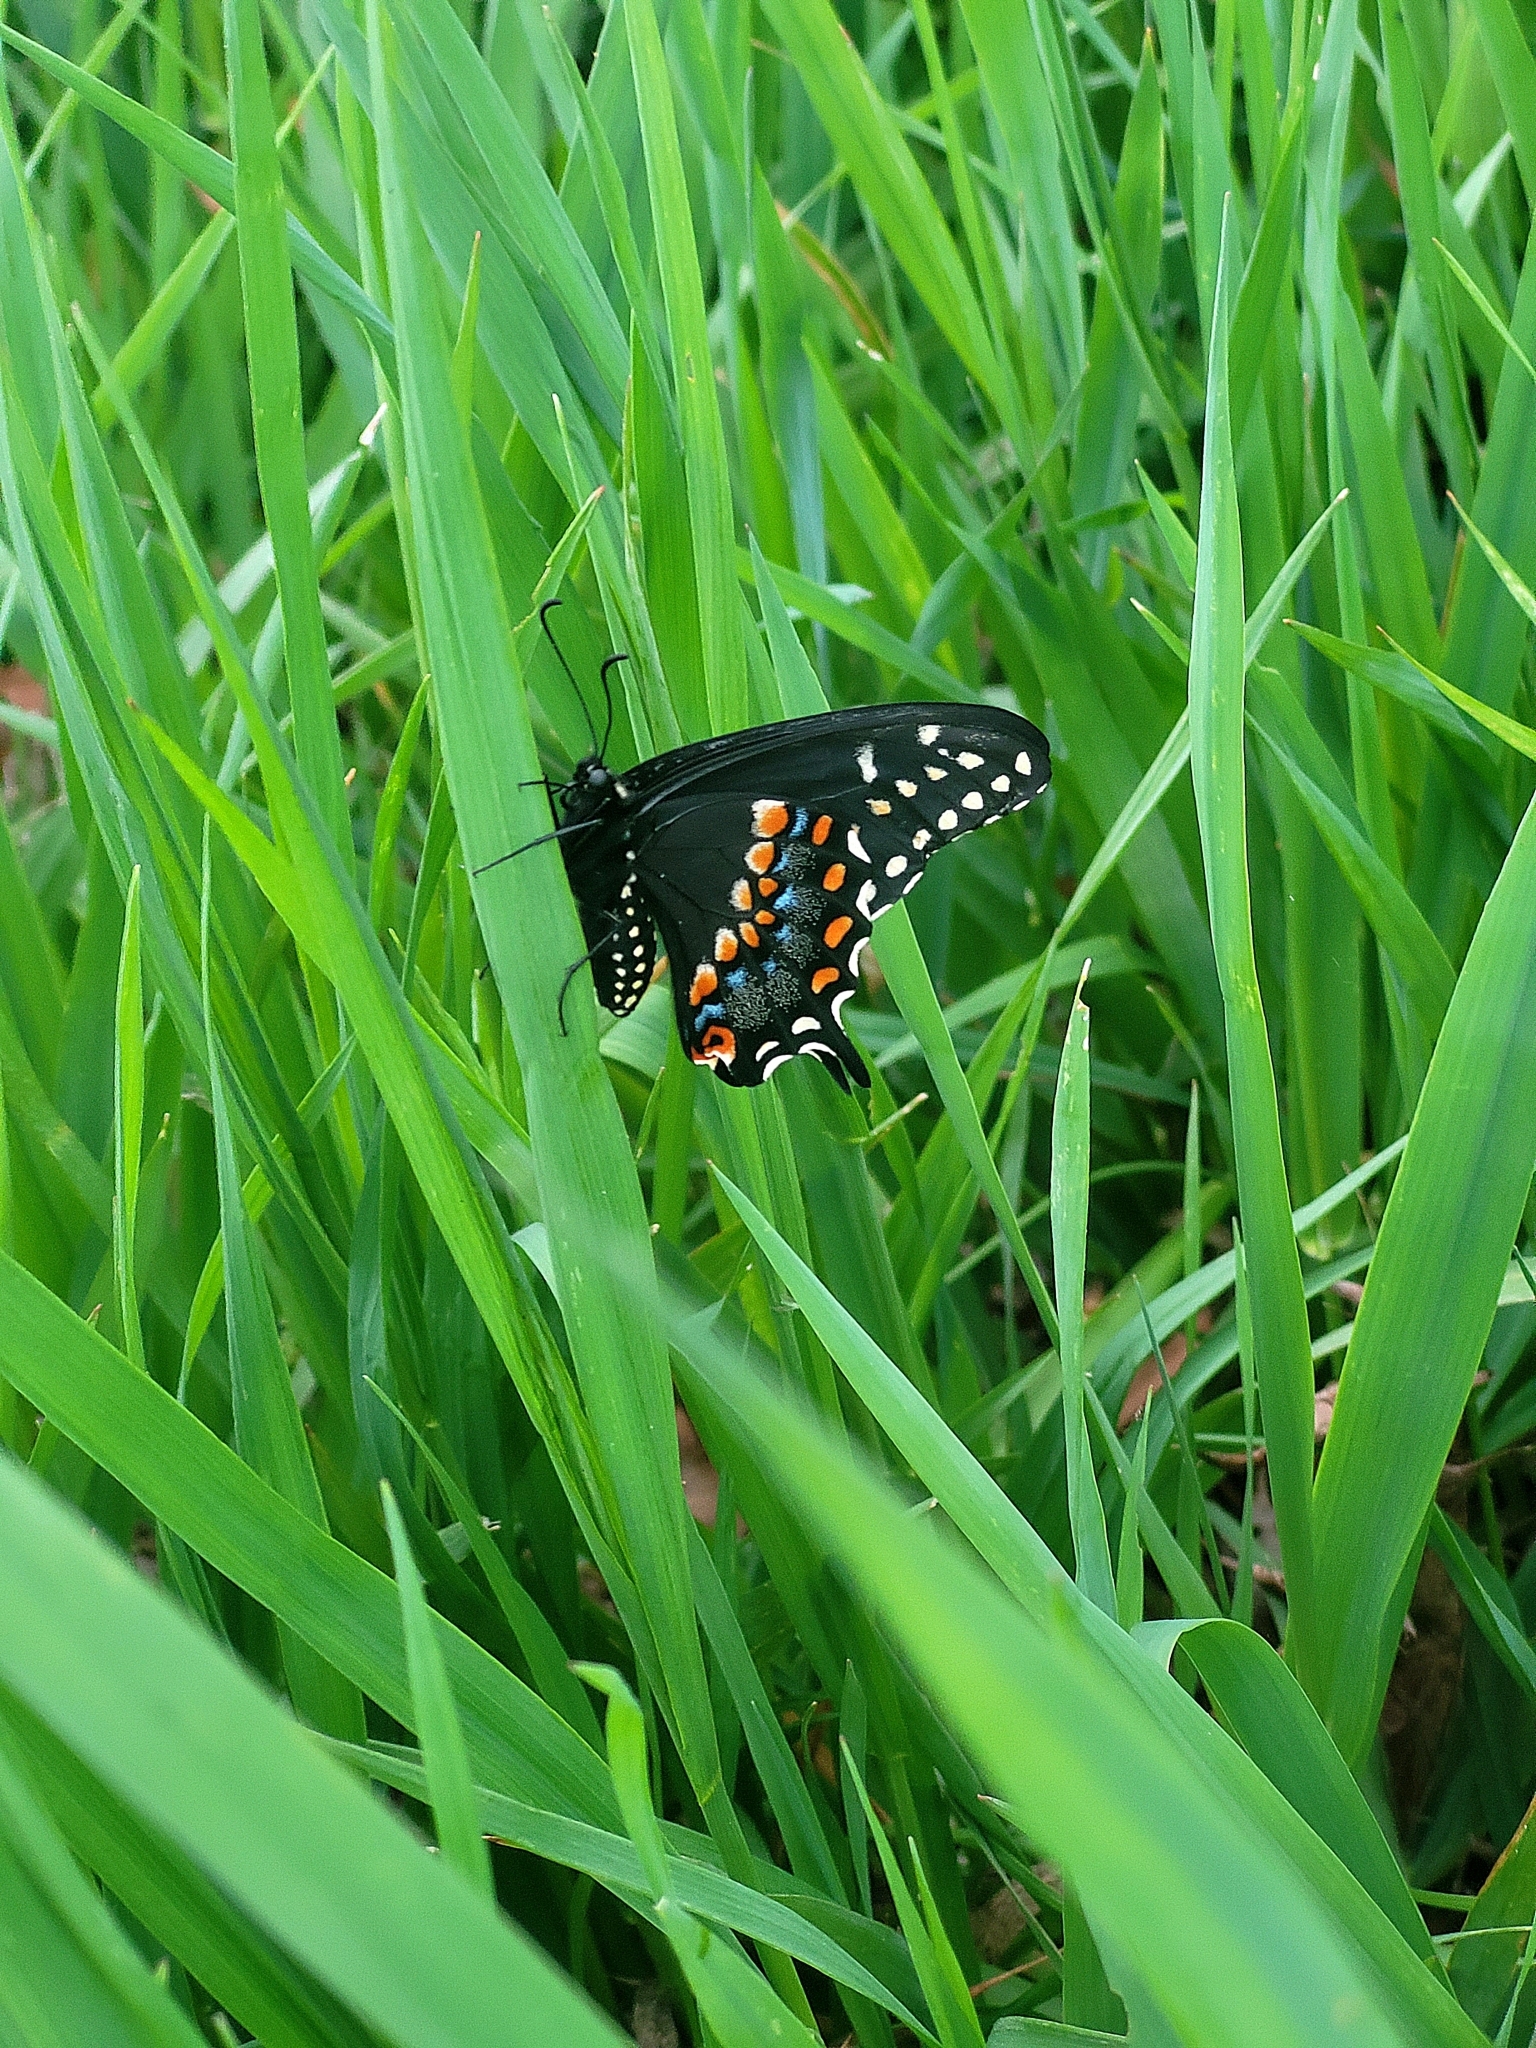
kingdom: Animalia
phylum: Arthropoda
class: Insecta
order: Lepidoptera
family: Papilionidae
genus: Papilio
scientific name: Papilio polyxenes
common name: Black swallowtail
